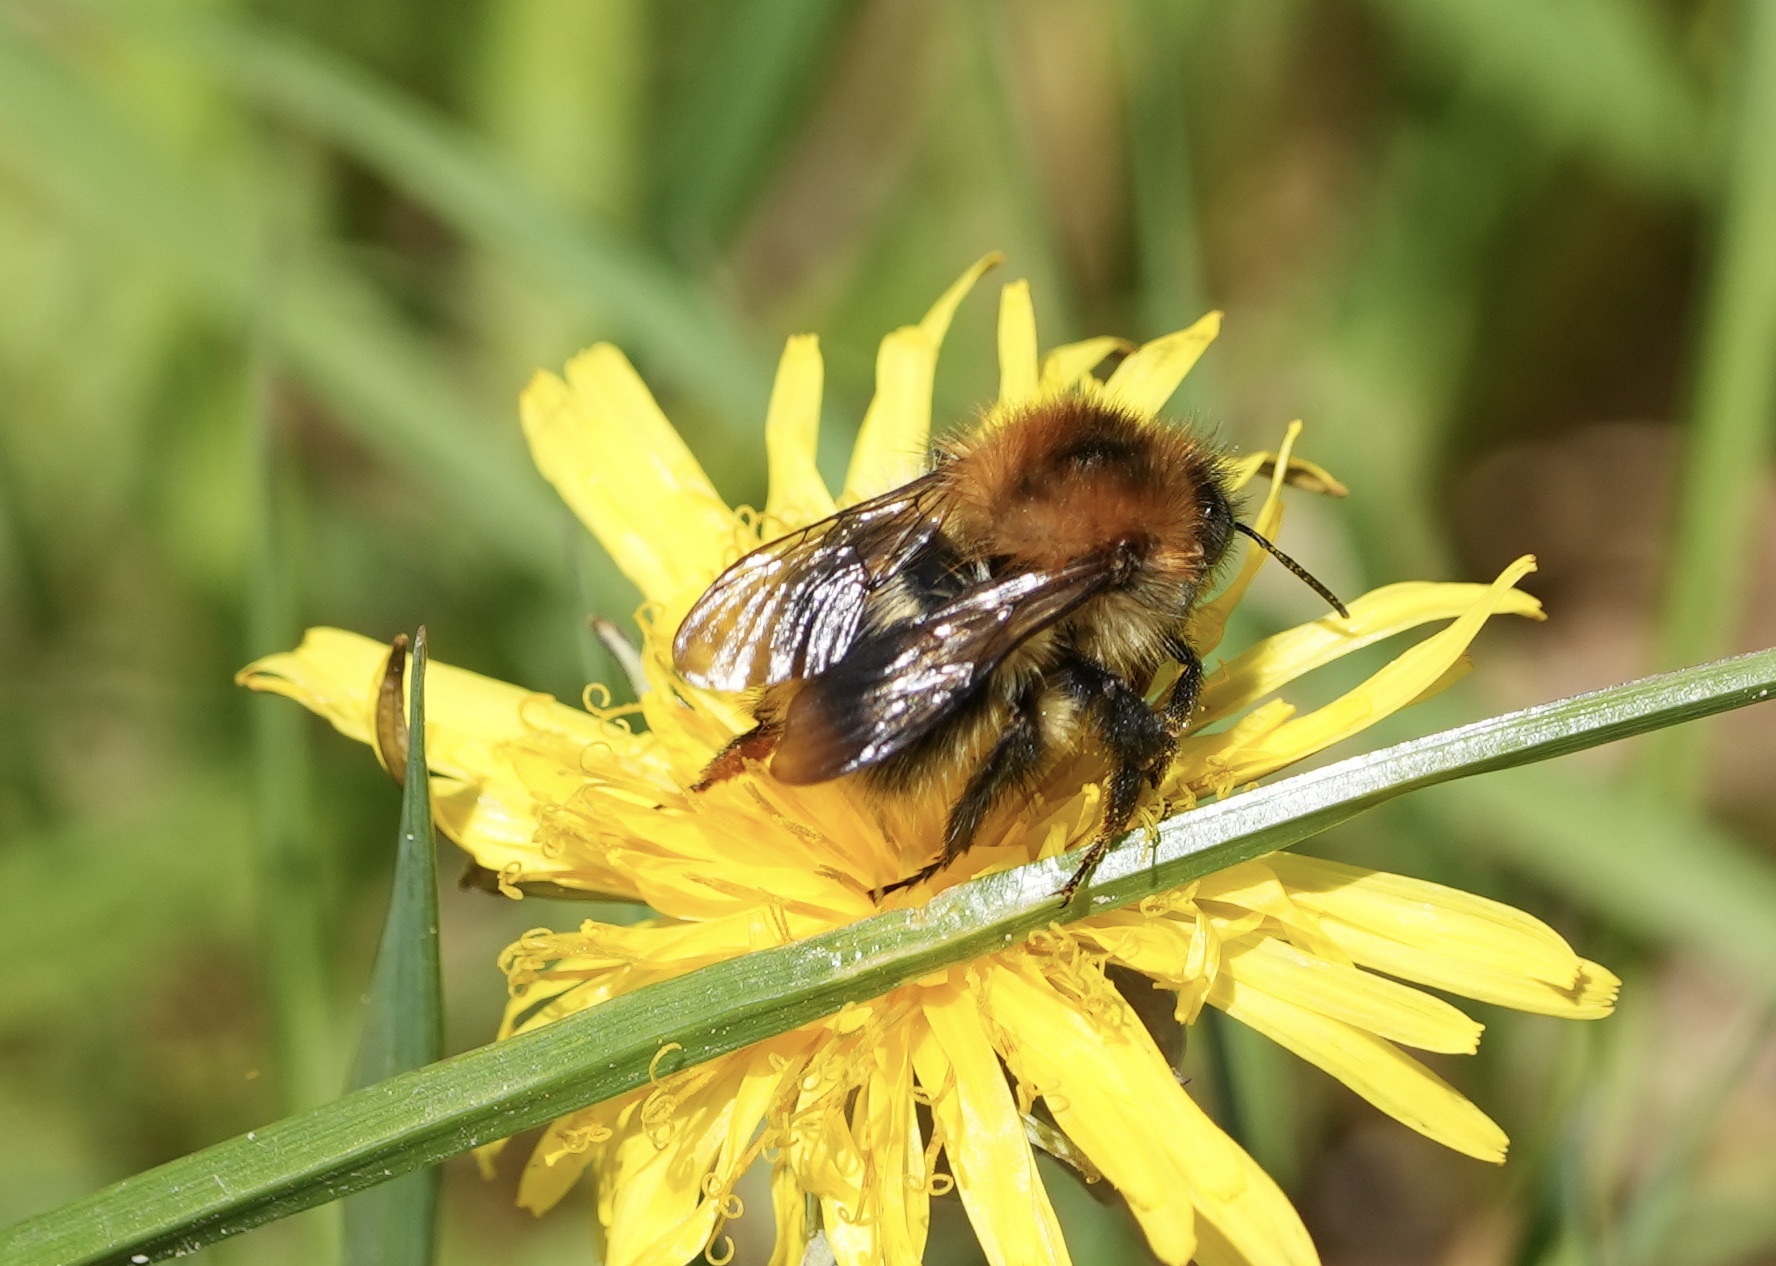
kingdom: Animalia
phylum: Arthropoda
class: Insecta
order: Hymenoptera
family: Apidae
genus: Bombus
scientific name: Bombus pascuorum
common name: Common carder bee
